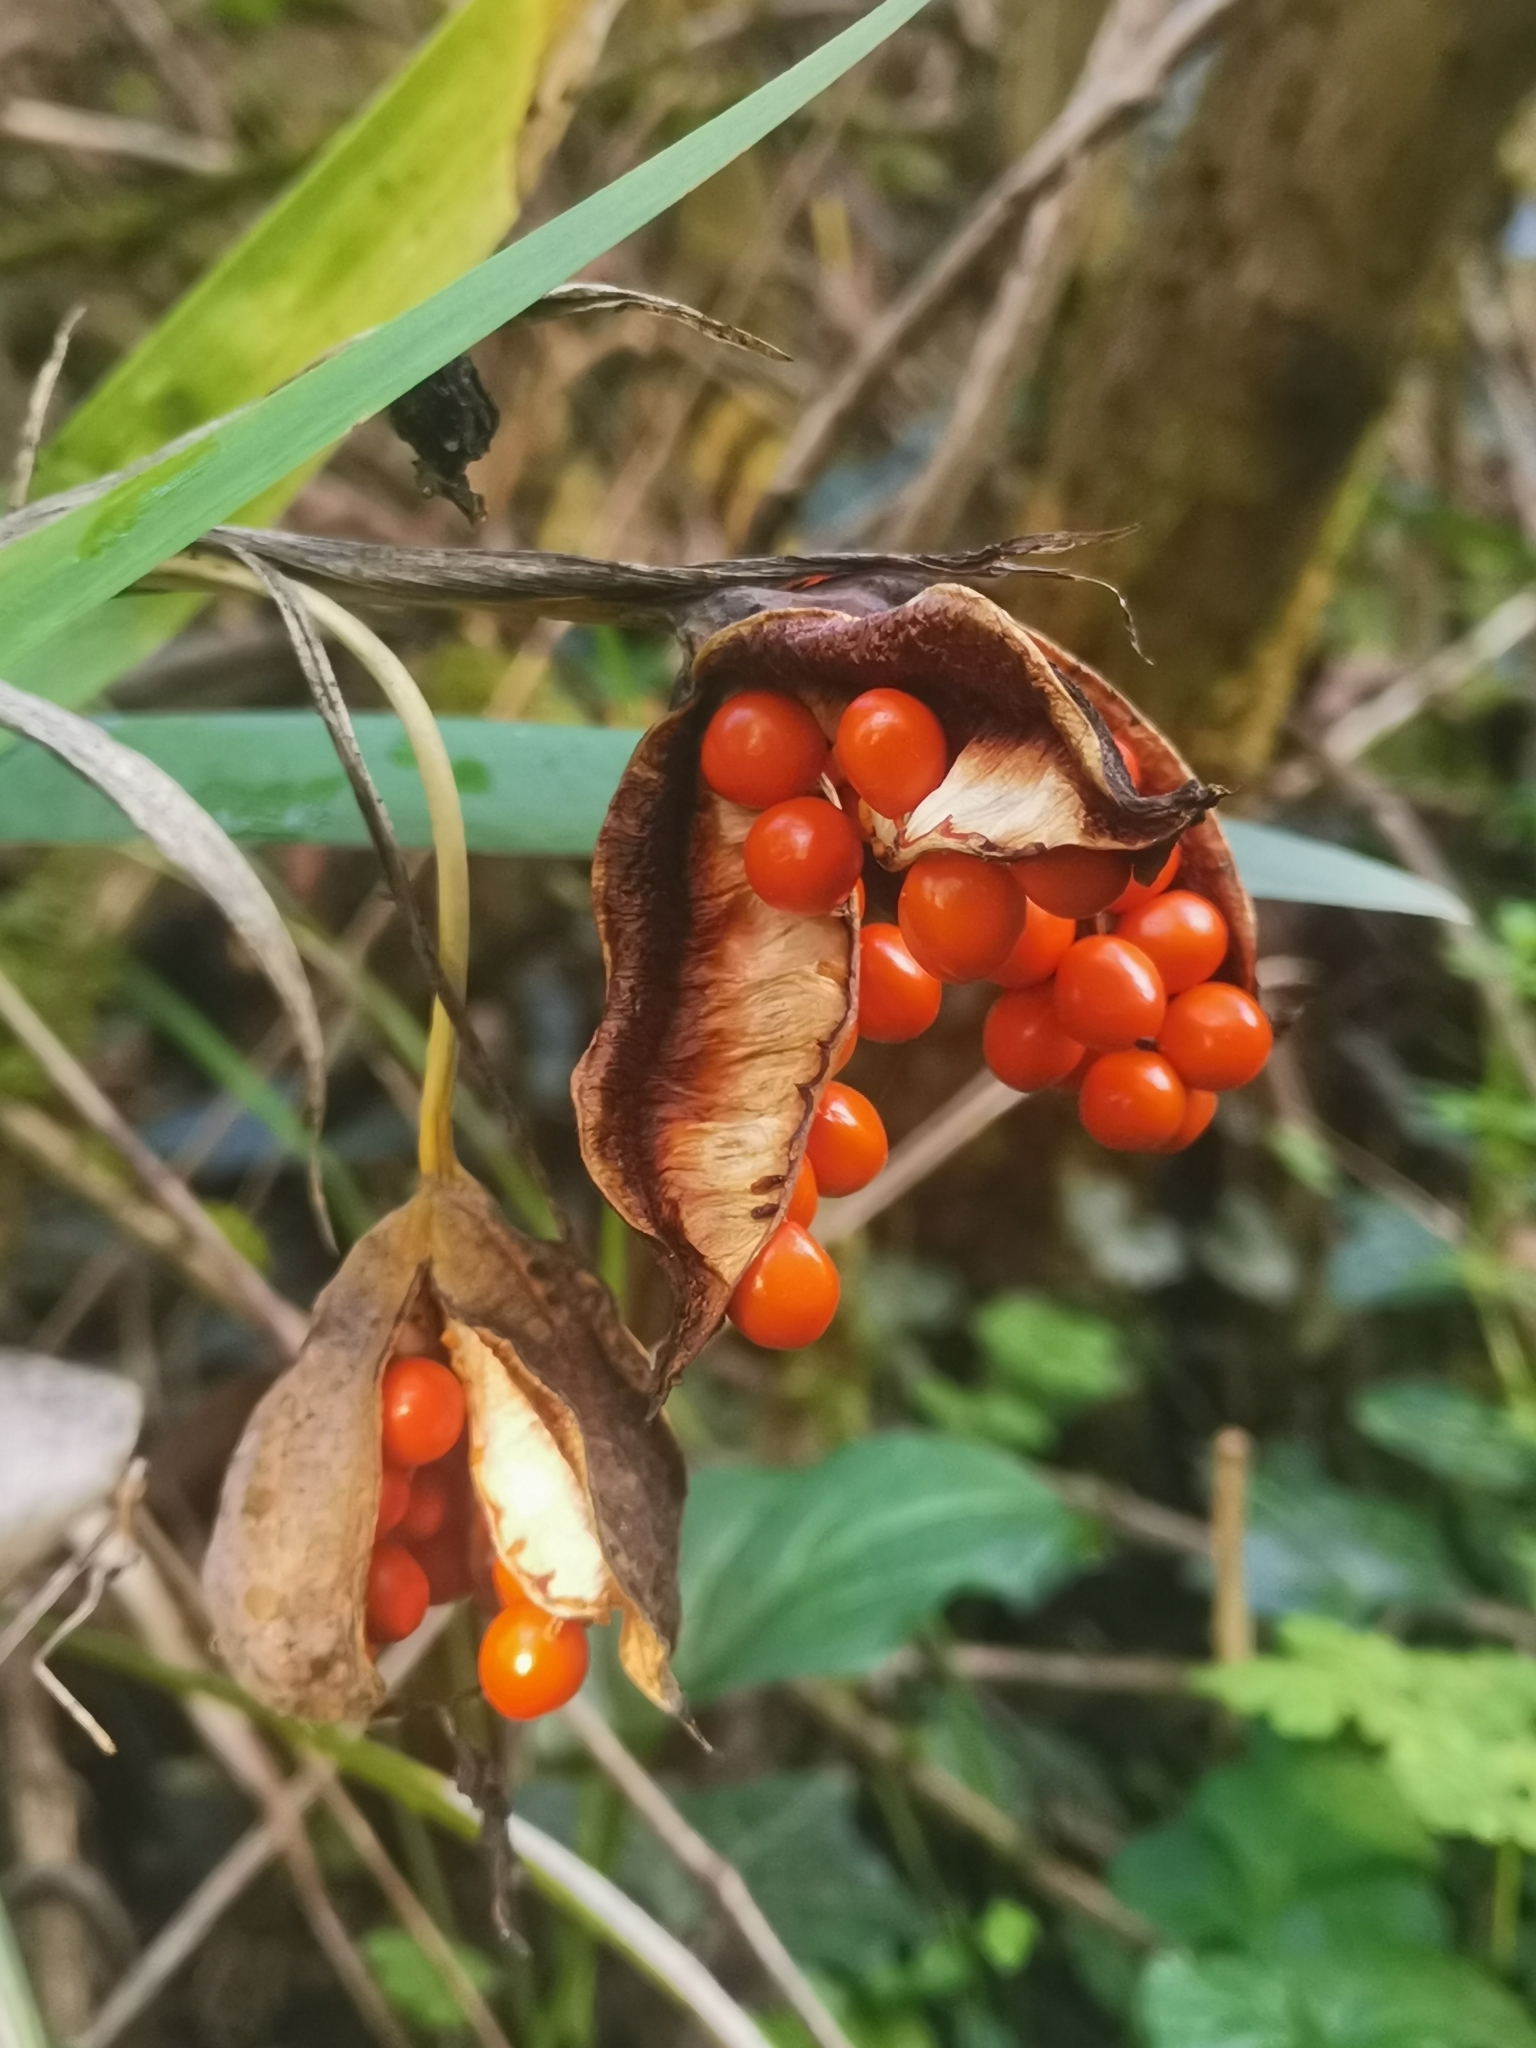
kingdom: Plantae
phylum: Tracheophyta
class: Liliopsida
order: Asparagales
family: Iridaceae
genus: Iris
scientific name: Iris foetidissima
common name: Stinking iris
